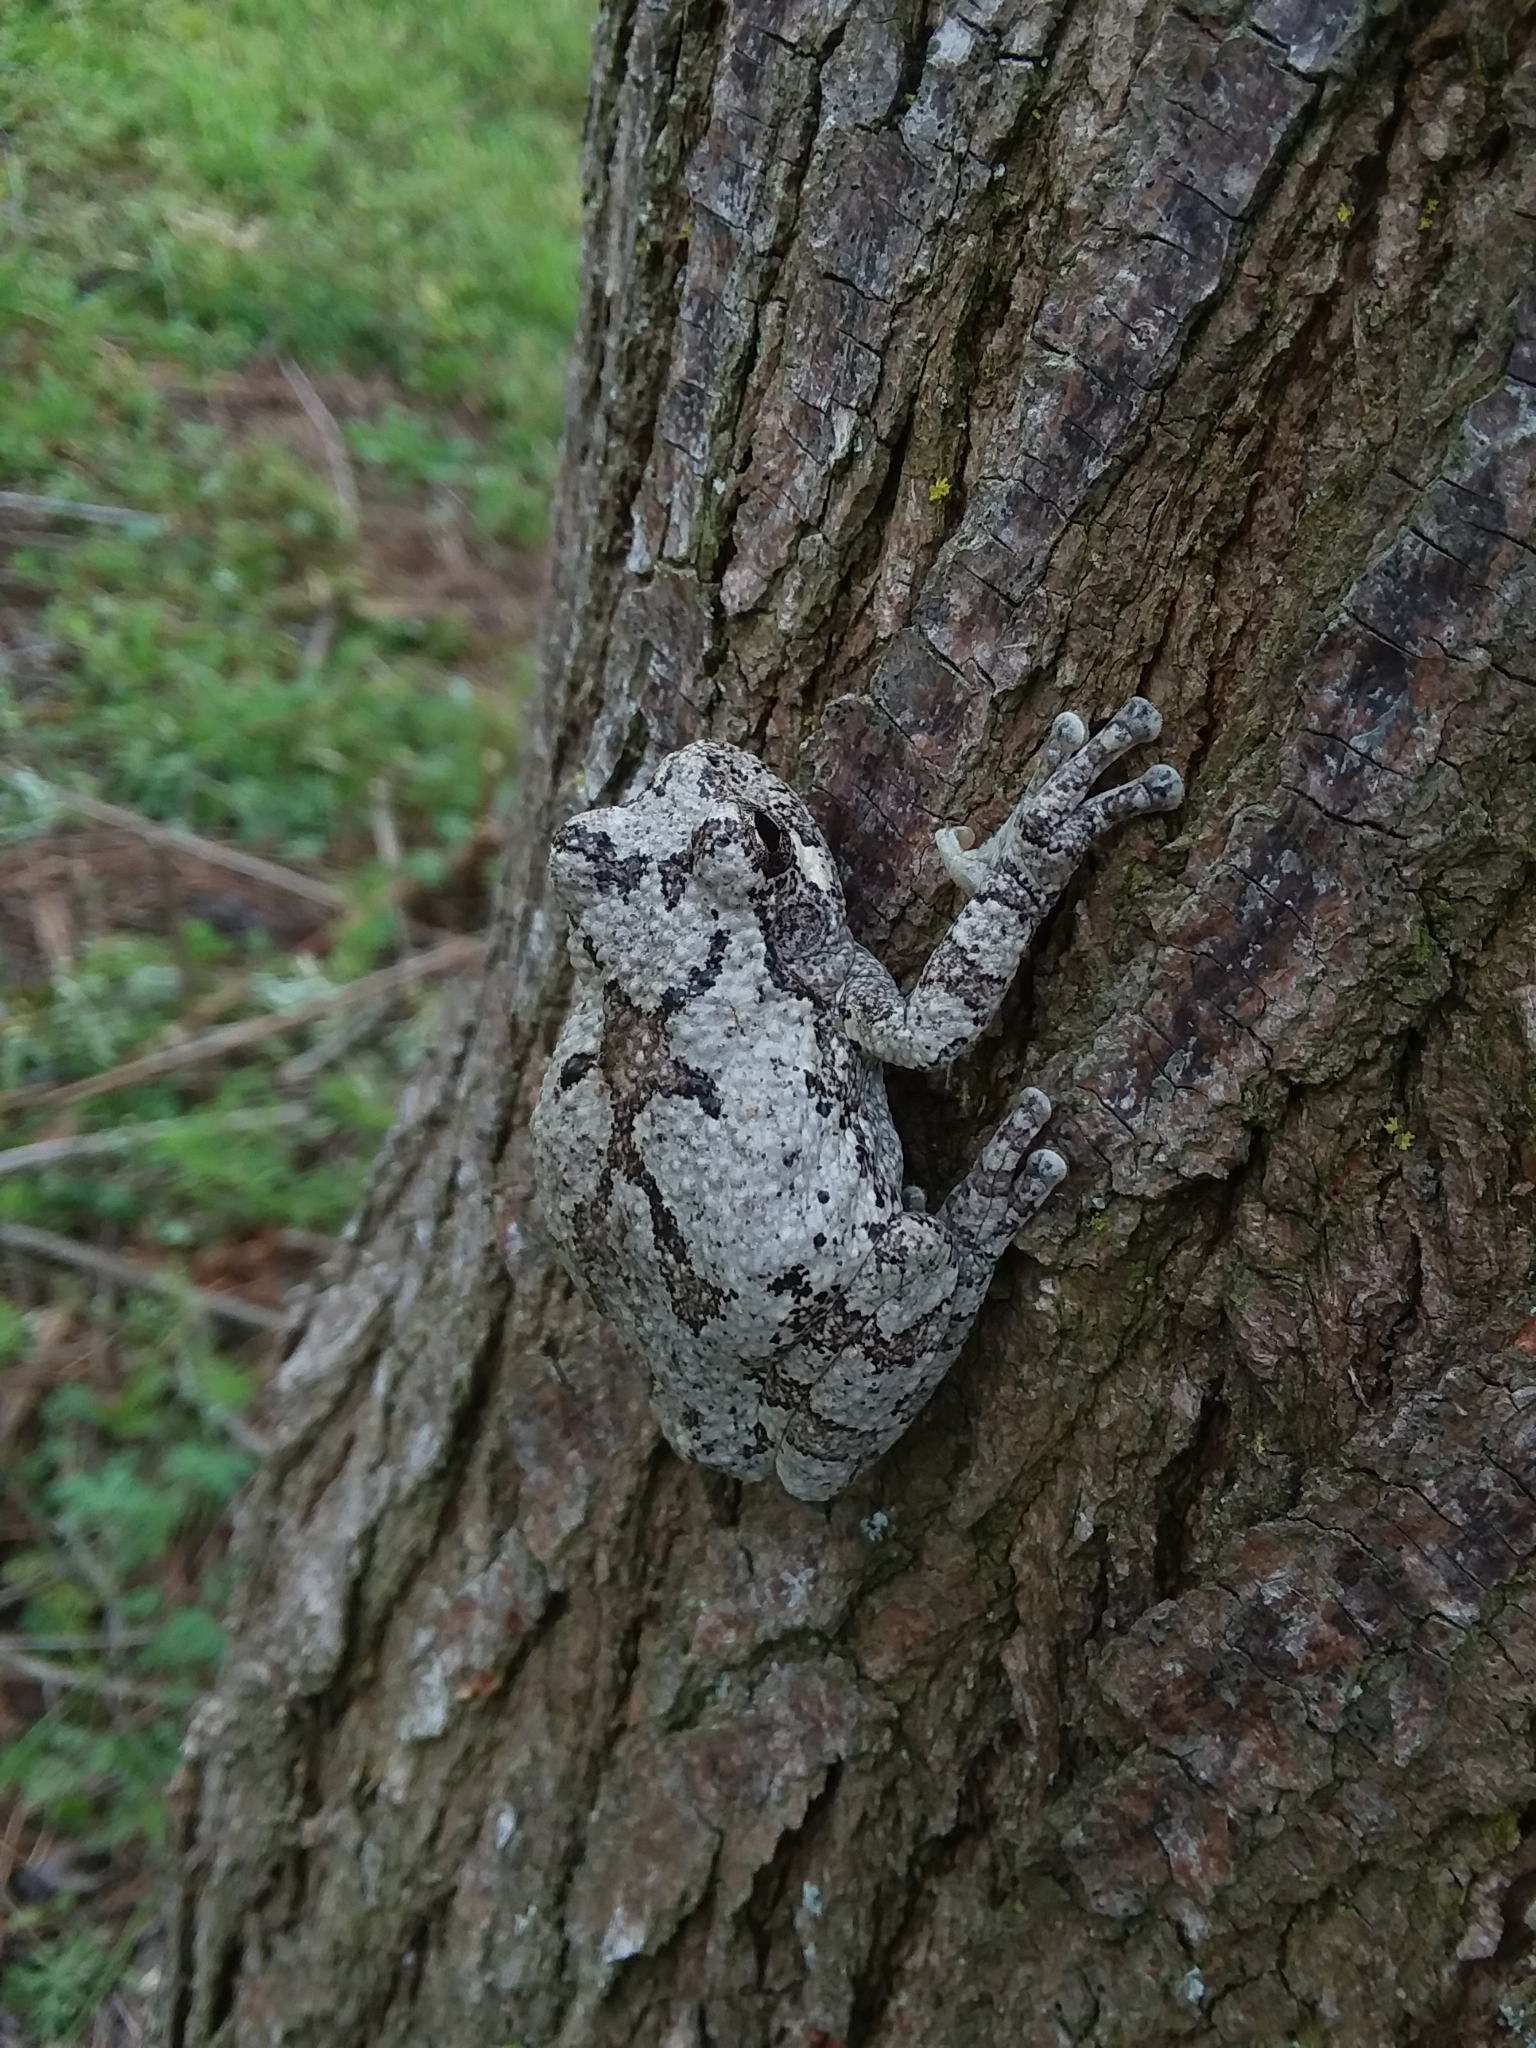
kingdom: Animalia
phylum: Chordata
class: Amphibia
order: Anura
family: Hylidae
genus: Dryophytes
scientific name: Dryophytes chrysoscelis
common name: Cope's gray treefrog
